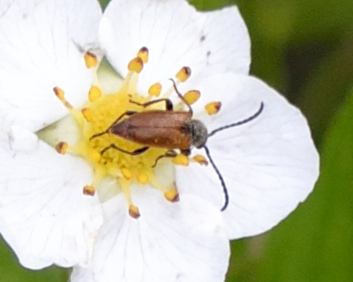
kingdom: Animalia
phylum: Arthropoda
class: Insecta
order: Coleoptera
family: Cerambycidae
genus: Pseudovadonia
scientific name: Pseudovadonia livida
